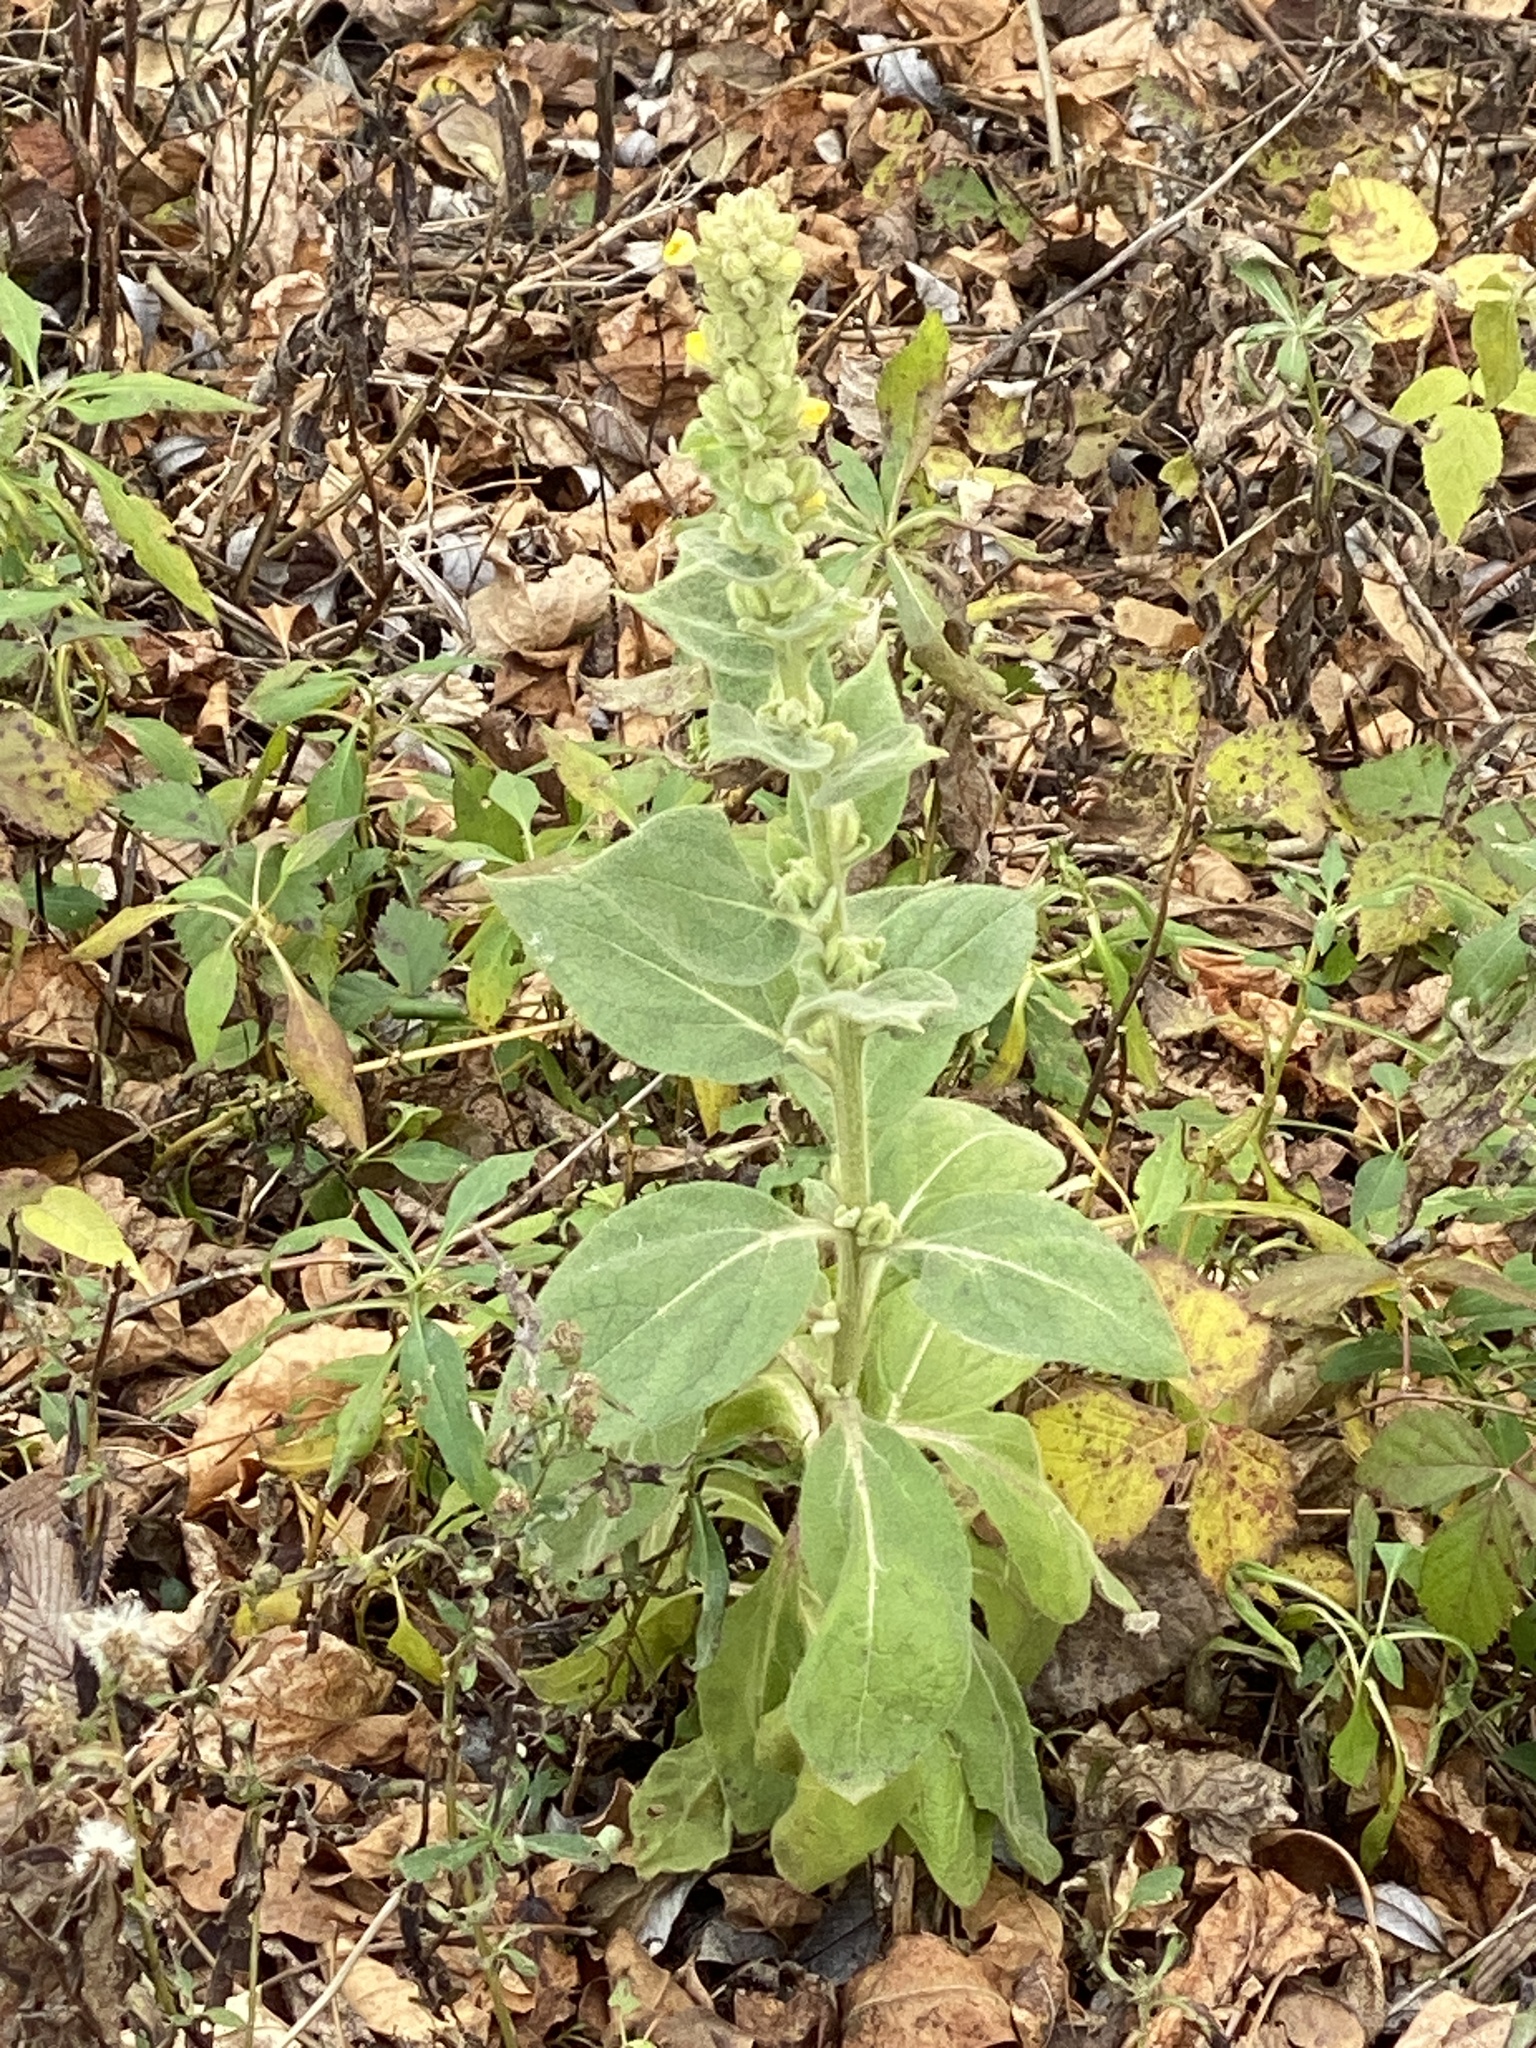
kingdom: Plantae
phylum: Tracheophyta
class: Magnoliopsida
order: Lamiales
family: Scrophulariaceae
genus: Verbascum
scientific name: Verbascum thapsus
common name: Common mullein
